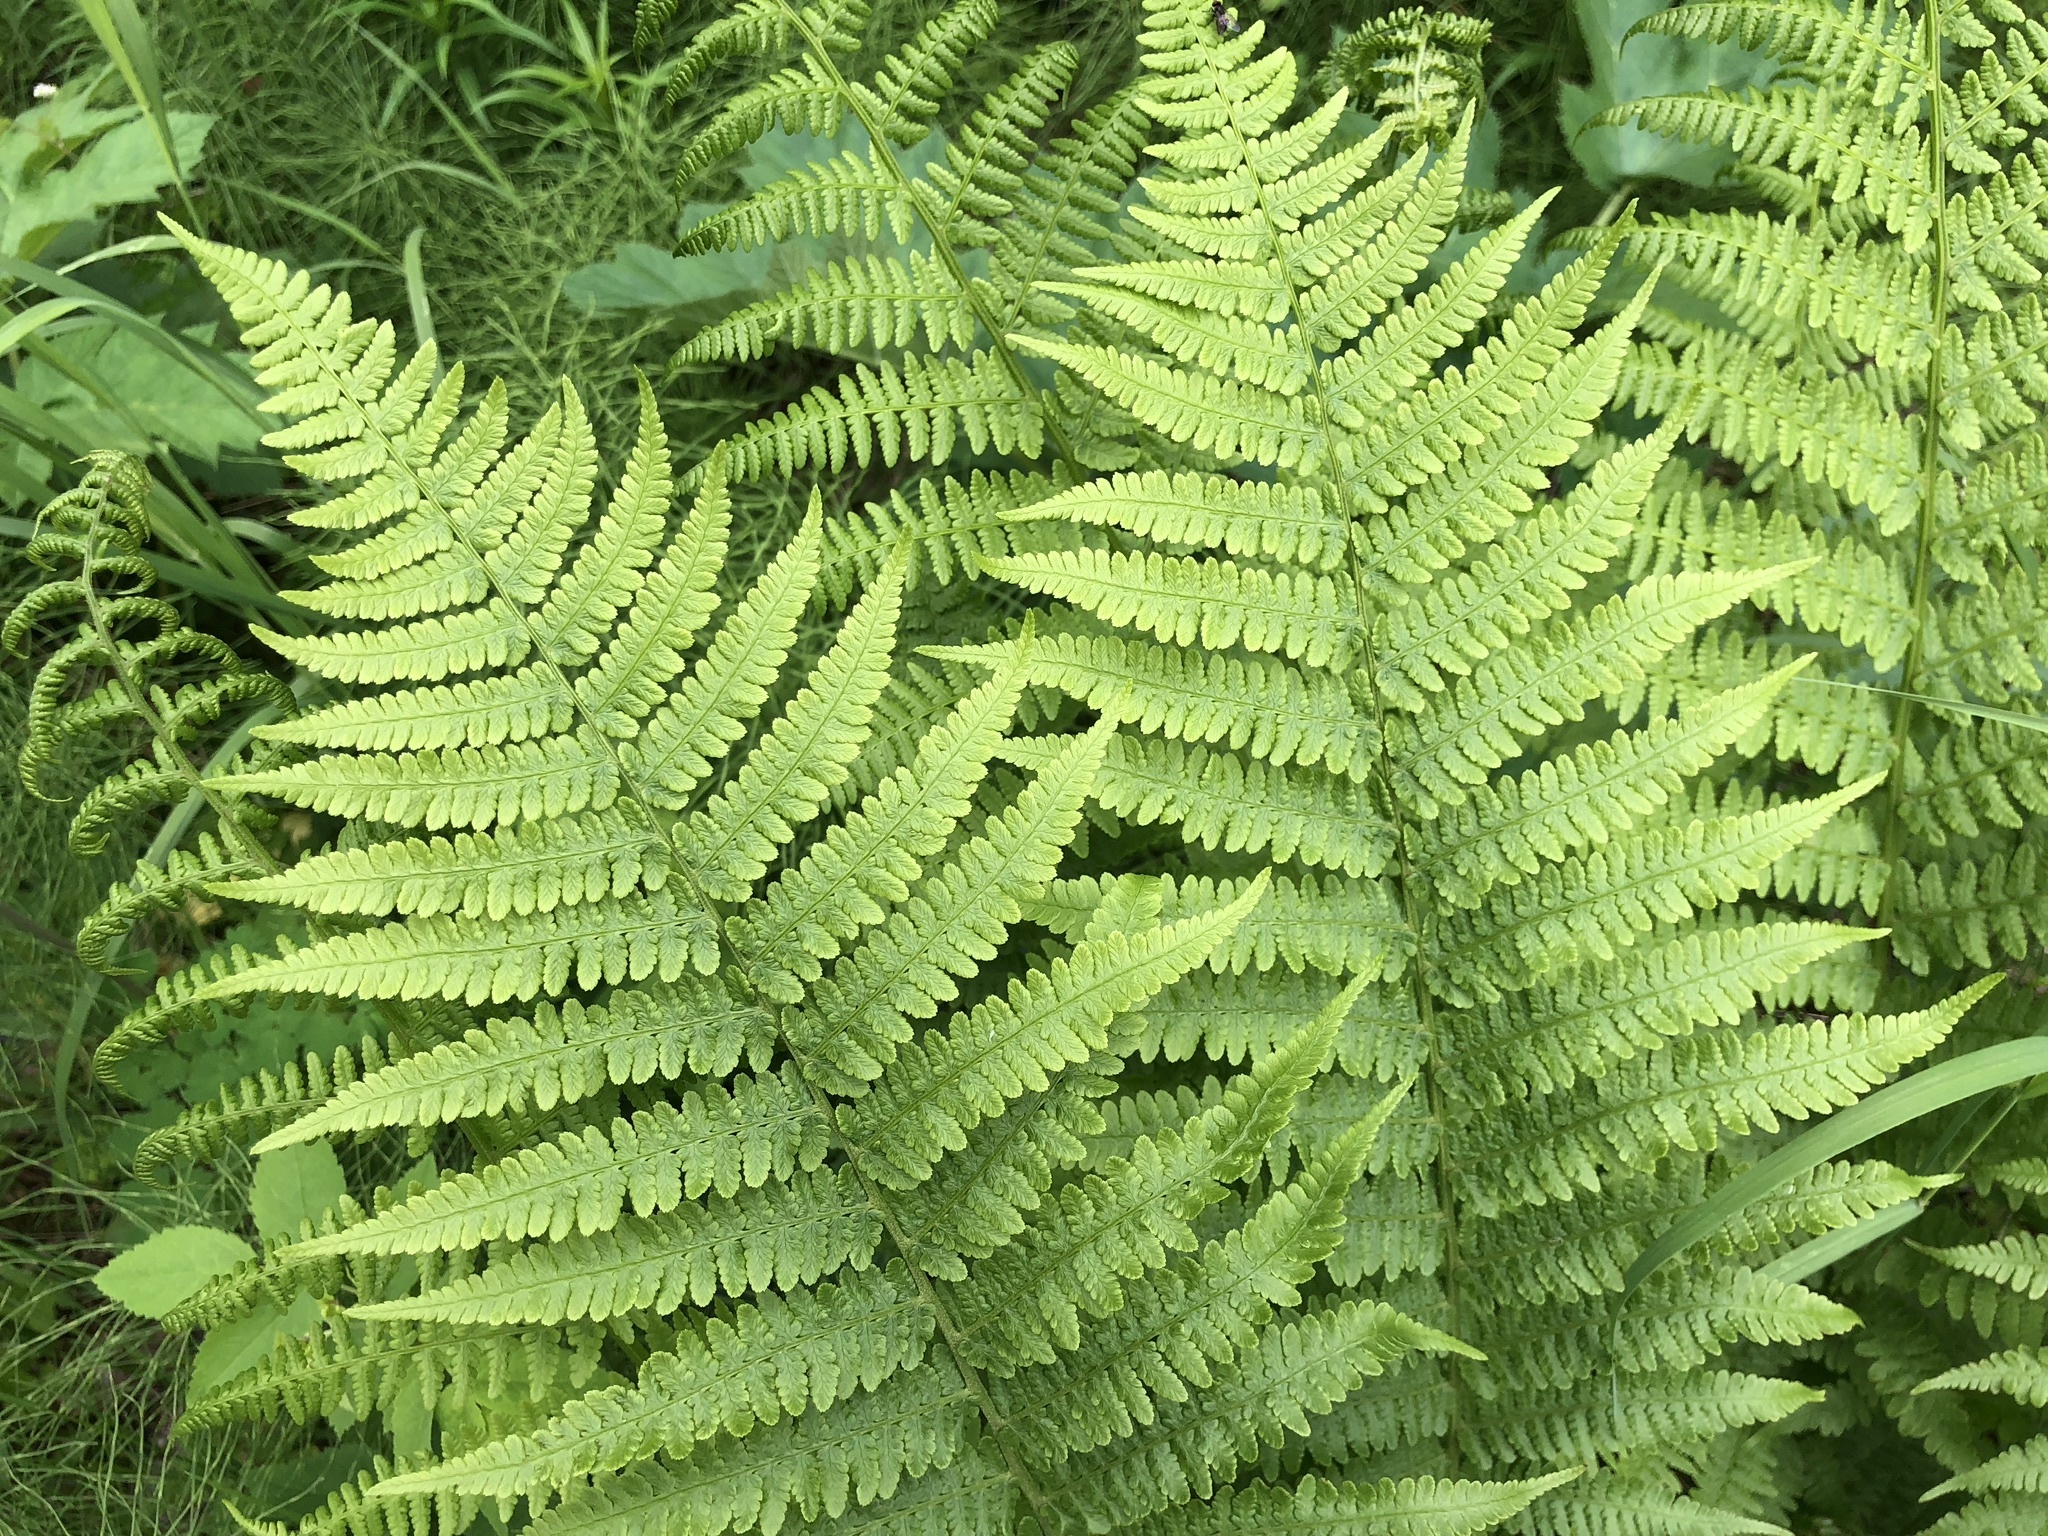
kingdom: Plantae
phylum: Tracheophyta
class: Polypodiopsida
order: Polypodiales
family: Athyriaceae
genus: Athyrium
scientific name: Athyrium filix-femina
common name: Lady fern
